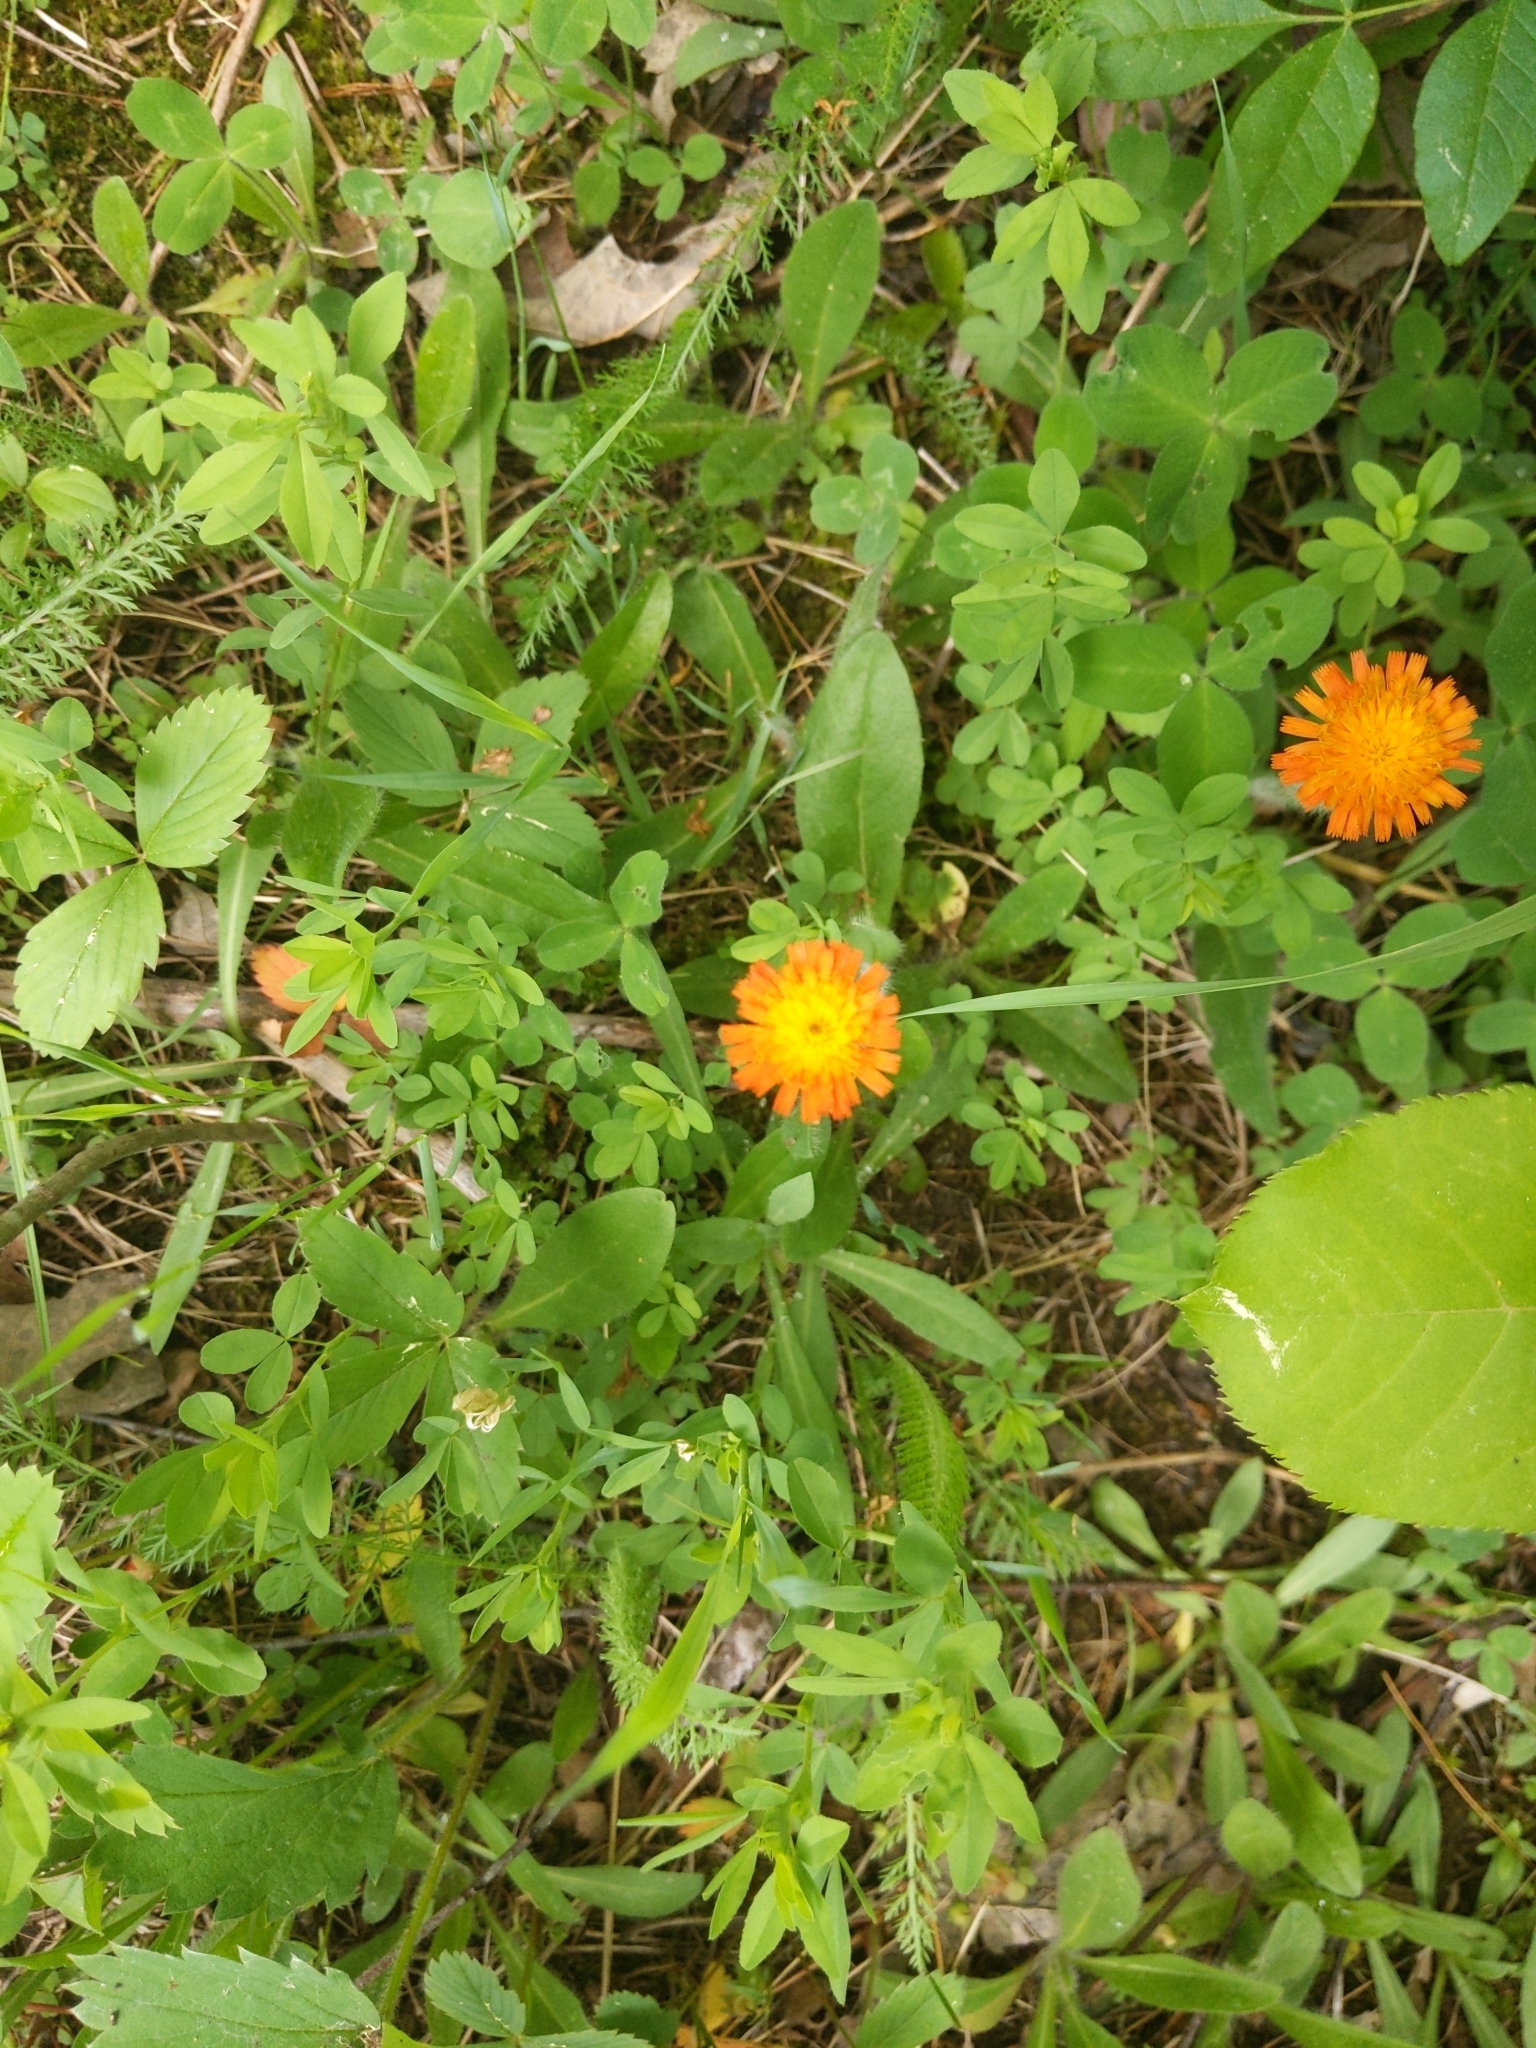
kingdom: Plantae
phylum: Tracheophyta
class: Magnoliopsida
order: Asterales
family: Asteraceae
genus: Pilosella
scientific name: Pilosella aurantiaca
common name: Fox-and-cubs
